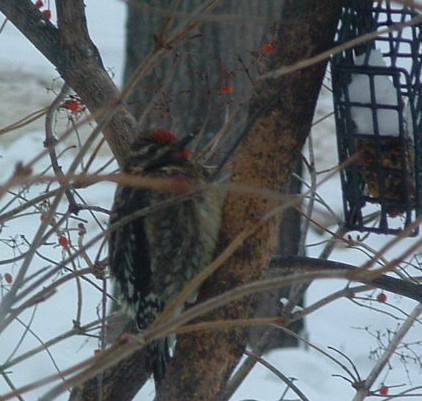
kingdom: Animalia
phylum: Chordata
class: Aves
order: Piciformes
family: Picidae
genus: Sphyrapicus
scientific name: Sphyrapicus varius
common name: Yellow-bellied sapsucker
